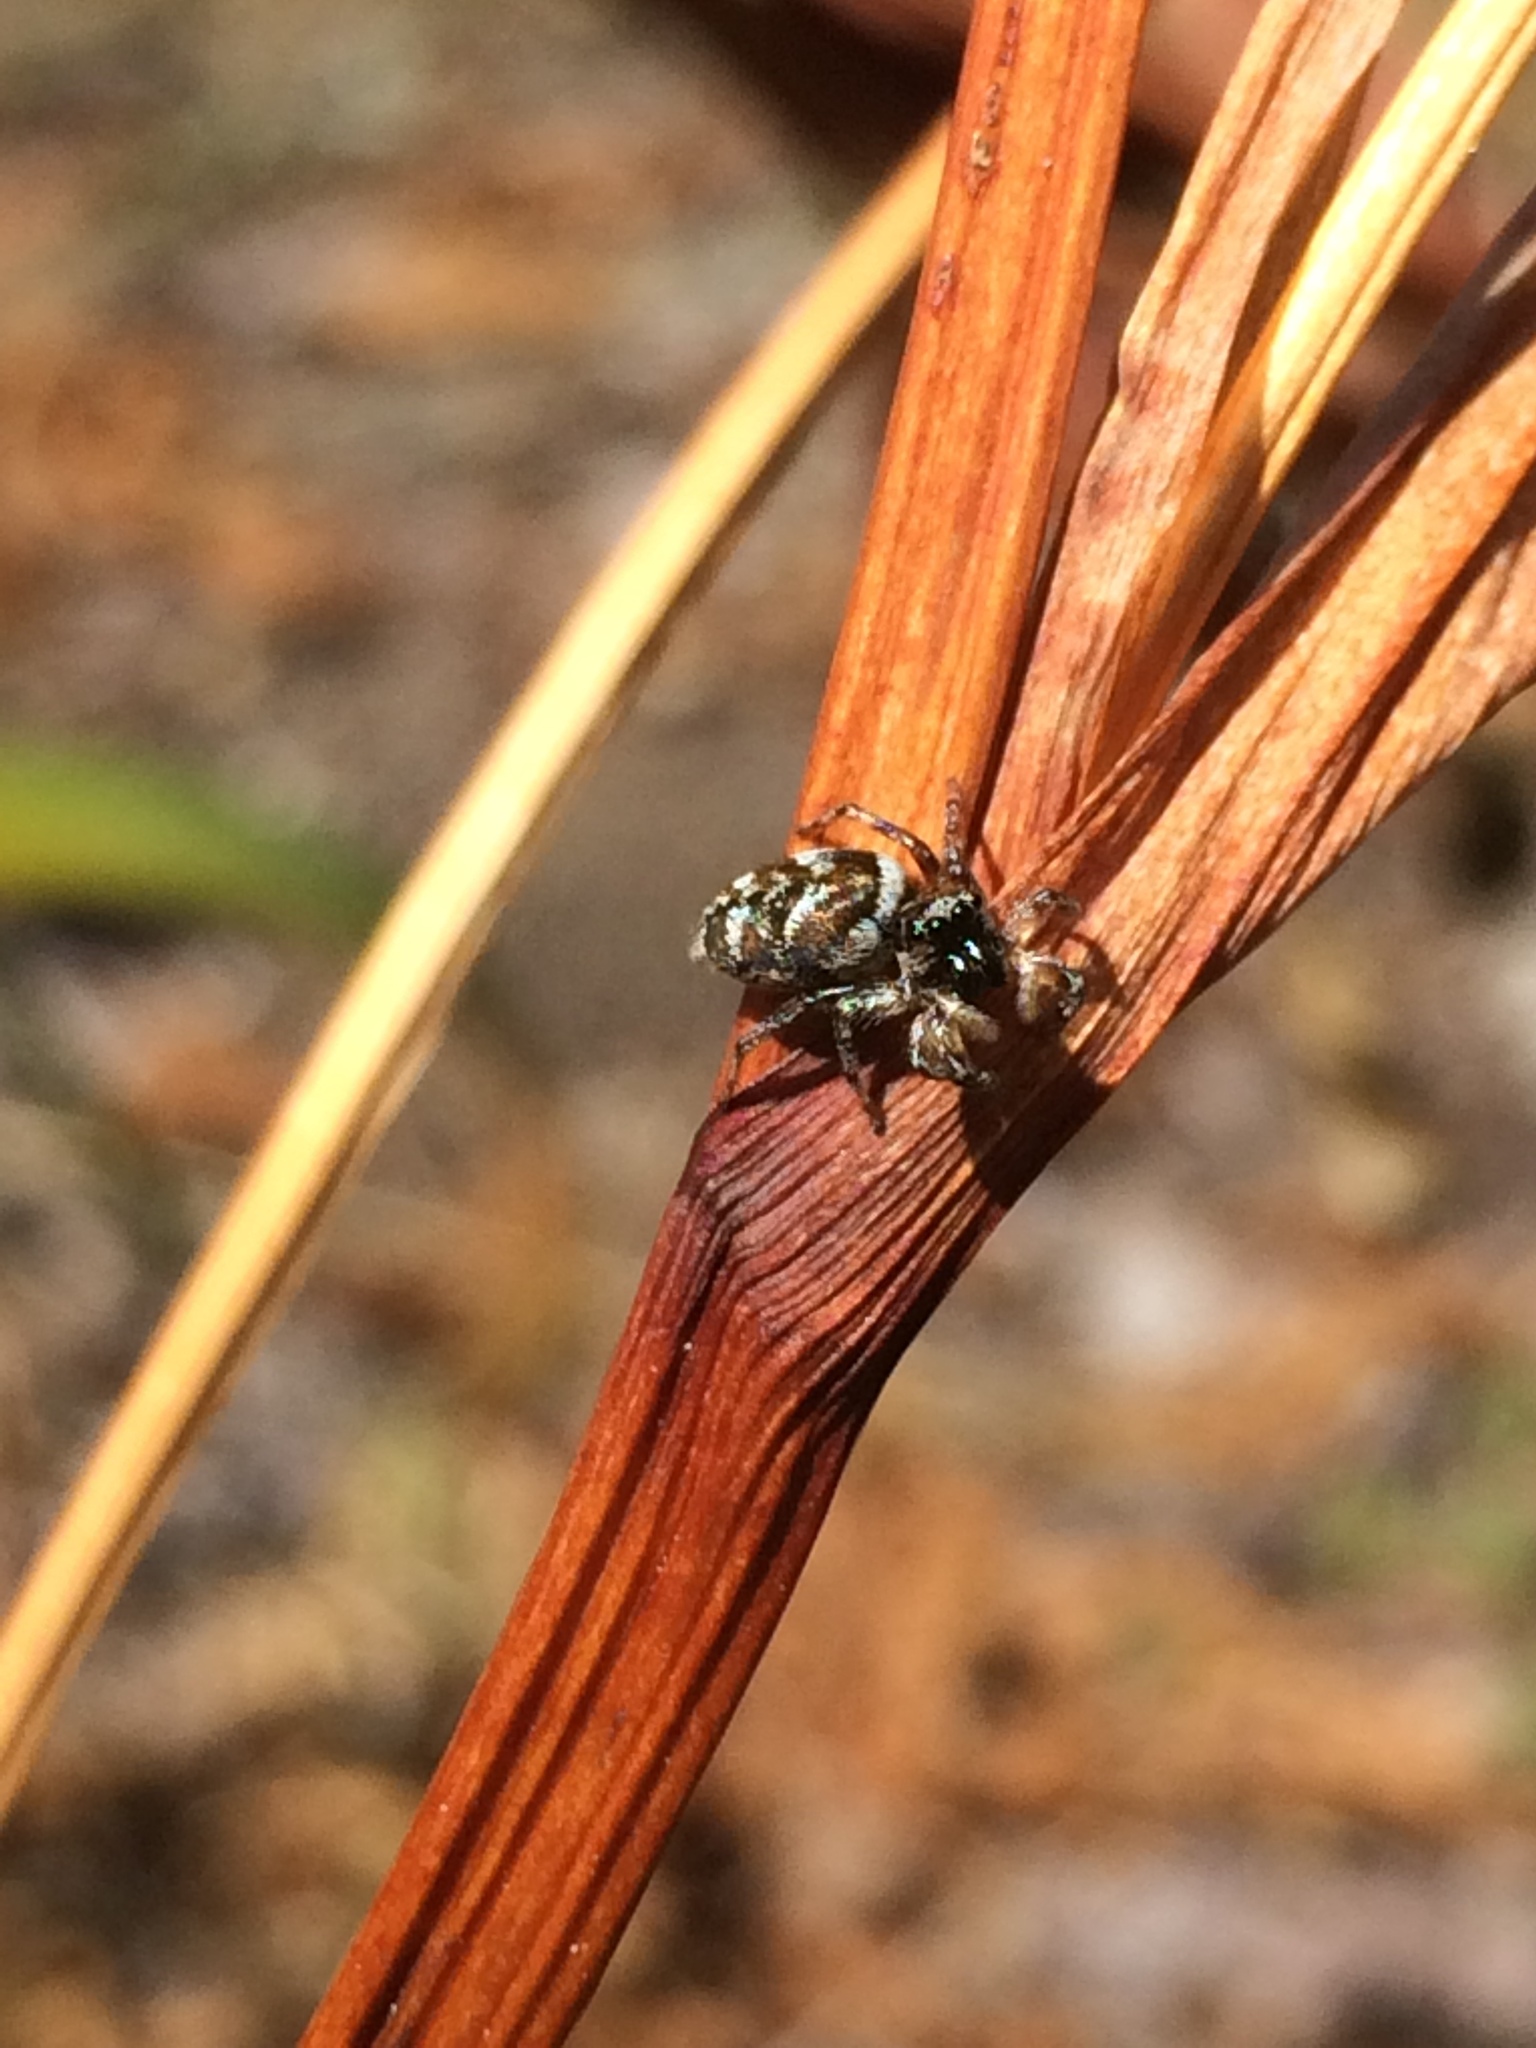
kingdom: Animalia
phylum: Arthropoda
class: Arachnida
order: Araneae
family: Salticidae
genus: Salticus
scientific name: Salticus scenicus
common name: Zebra jumper
